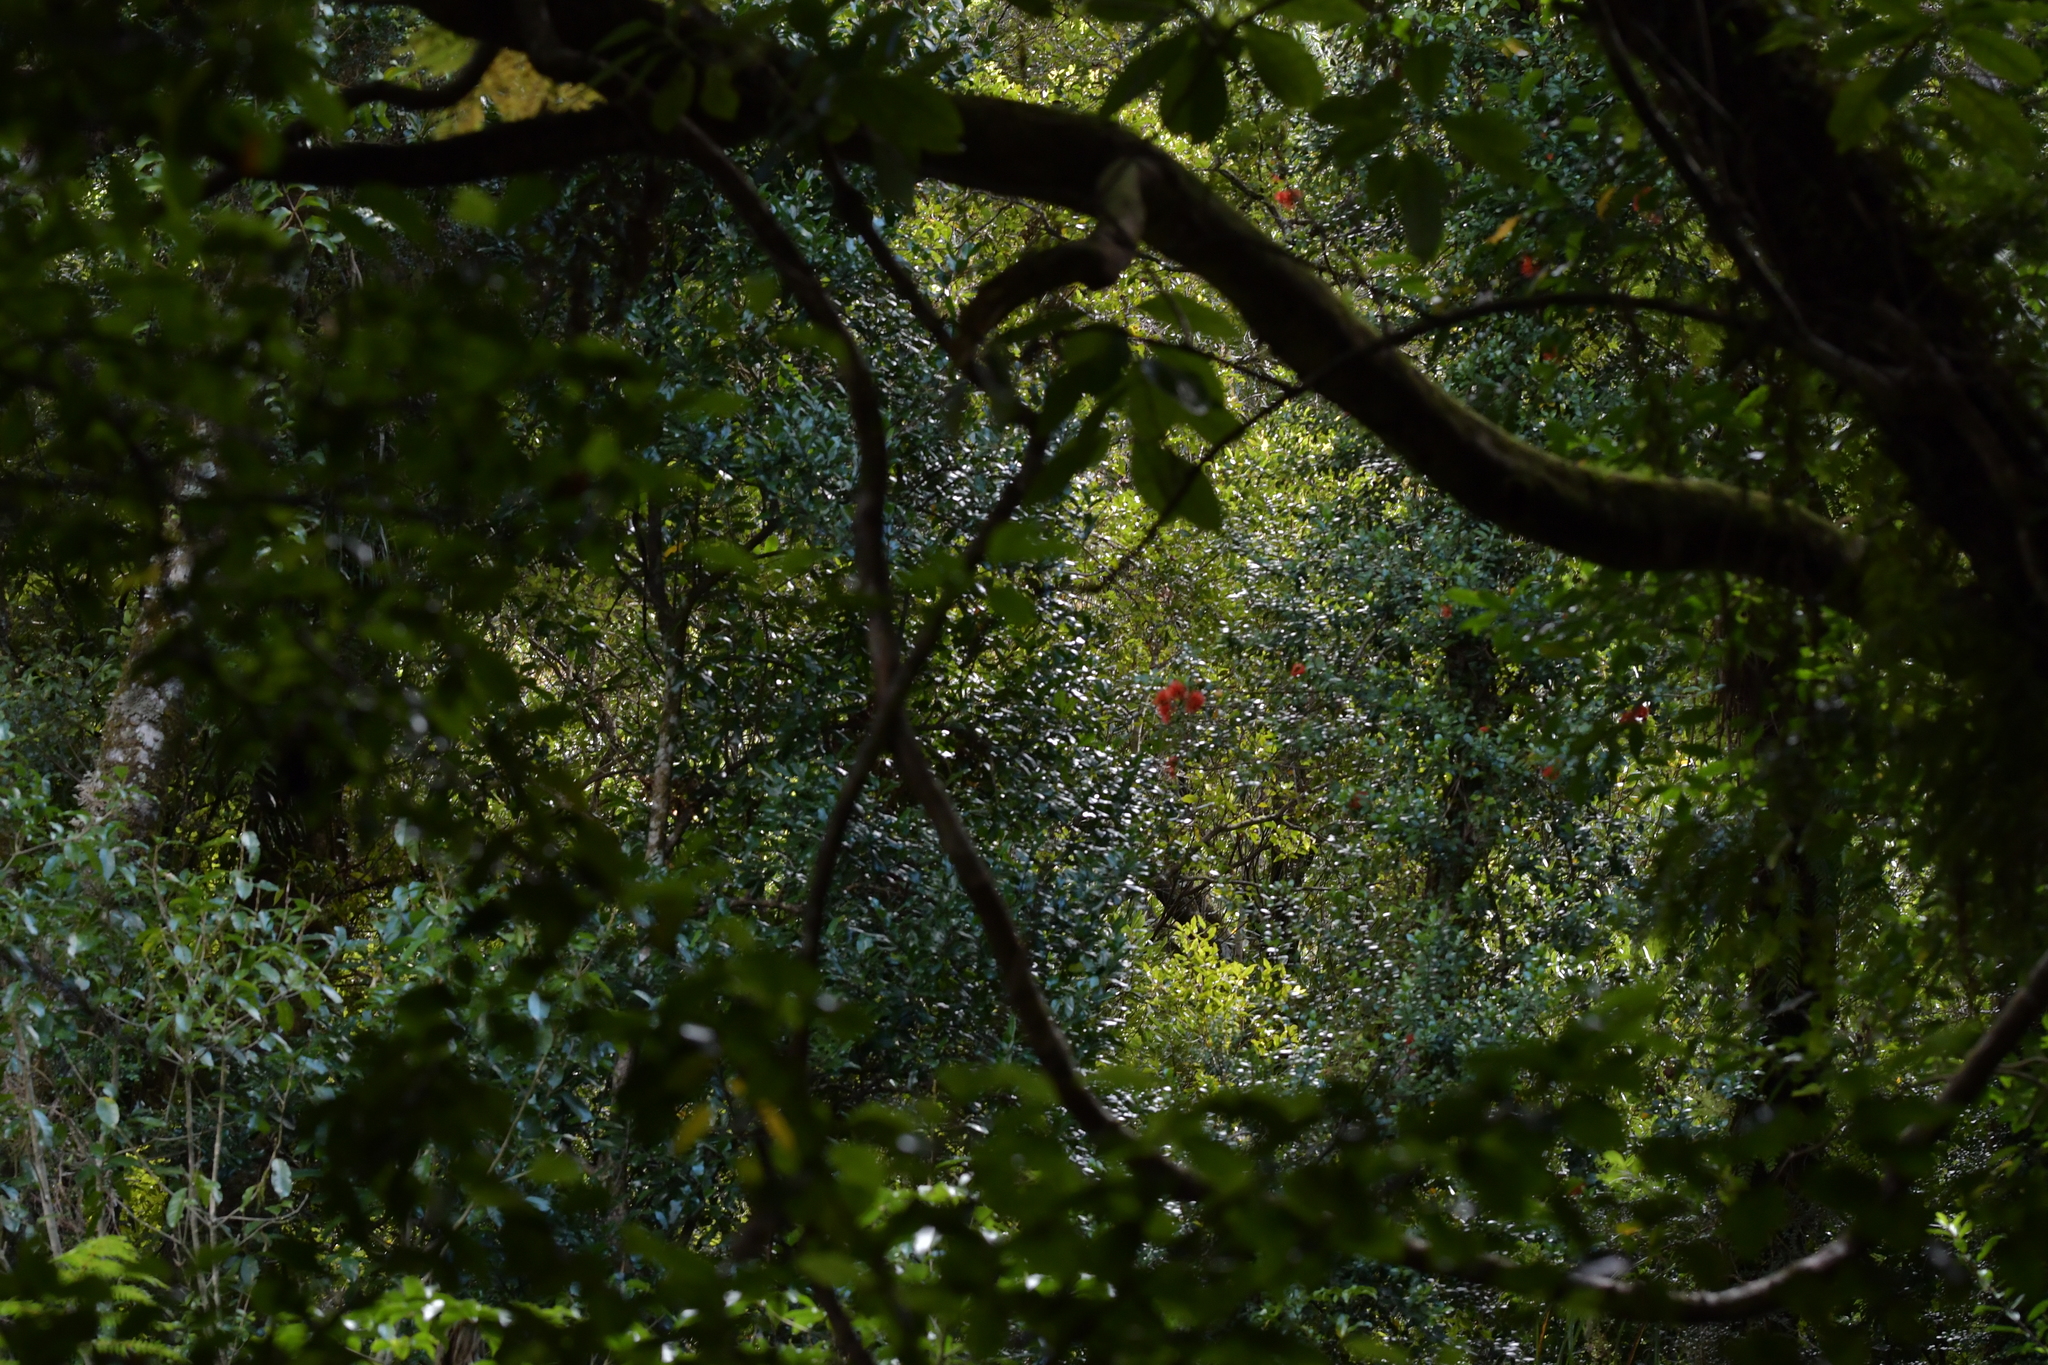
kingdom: Plantae
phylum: Tracheophyta
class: Magnoliopsida
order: Myrtales
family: Myrtaceae
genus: Metrosideros
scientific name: Metrosideros fulgens
